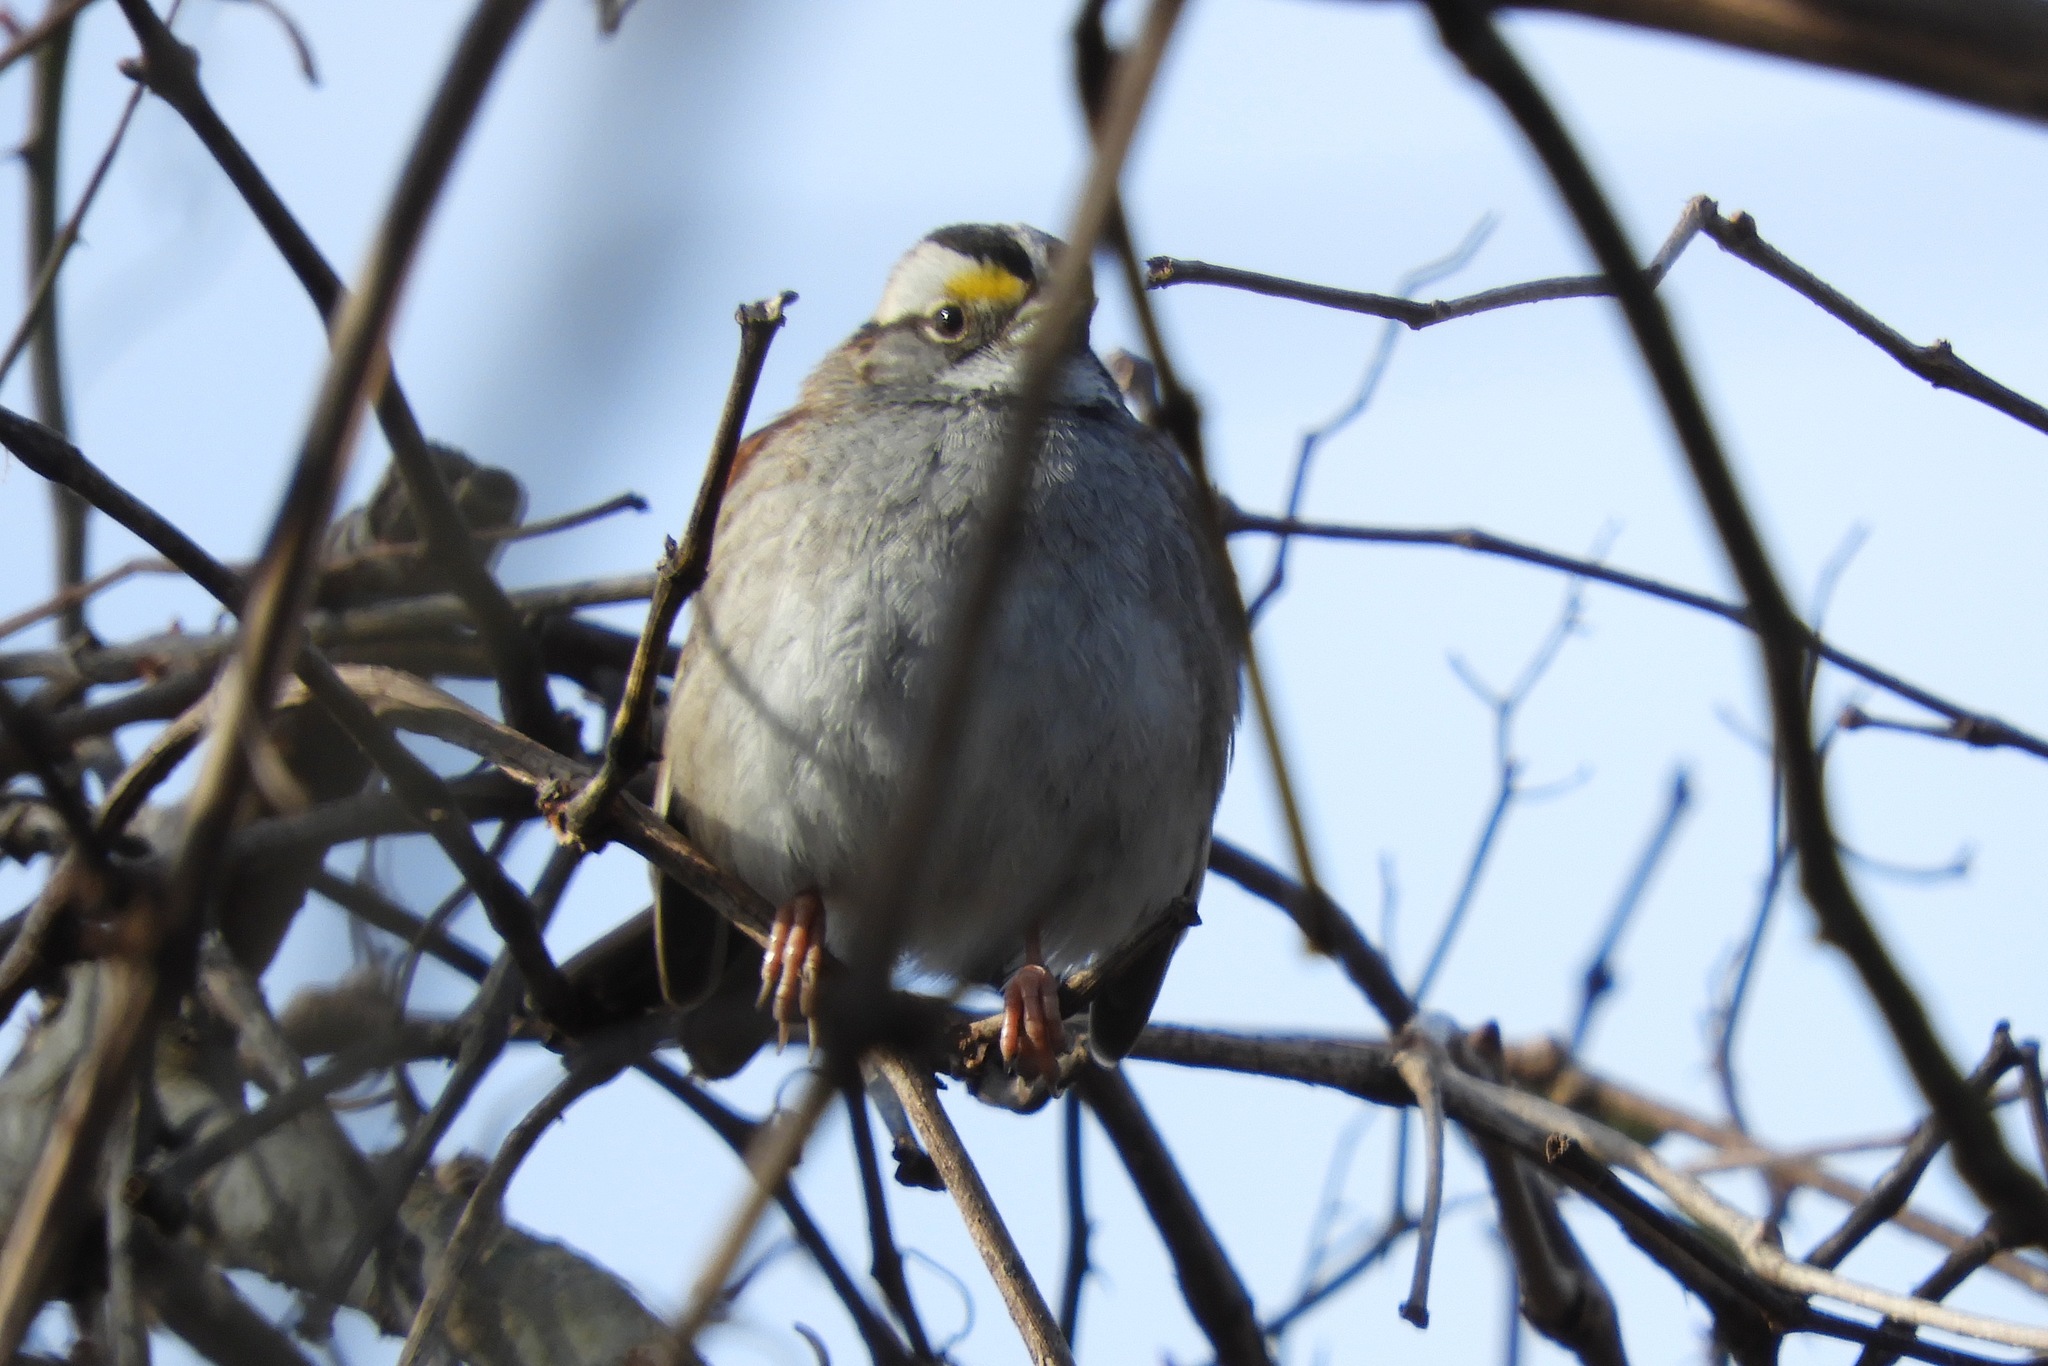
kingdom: Animalia
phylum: Chordata
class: Aves
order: Passeriformes
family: Passerellidae
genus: Zonotrichia
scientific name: Zonotrichia albicollis
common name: White-throated sparrow
